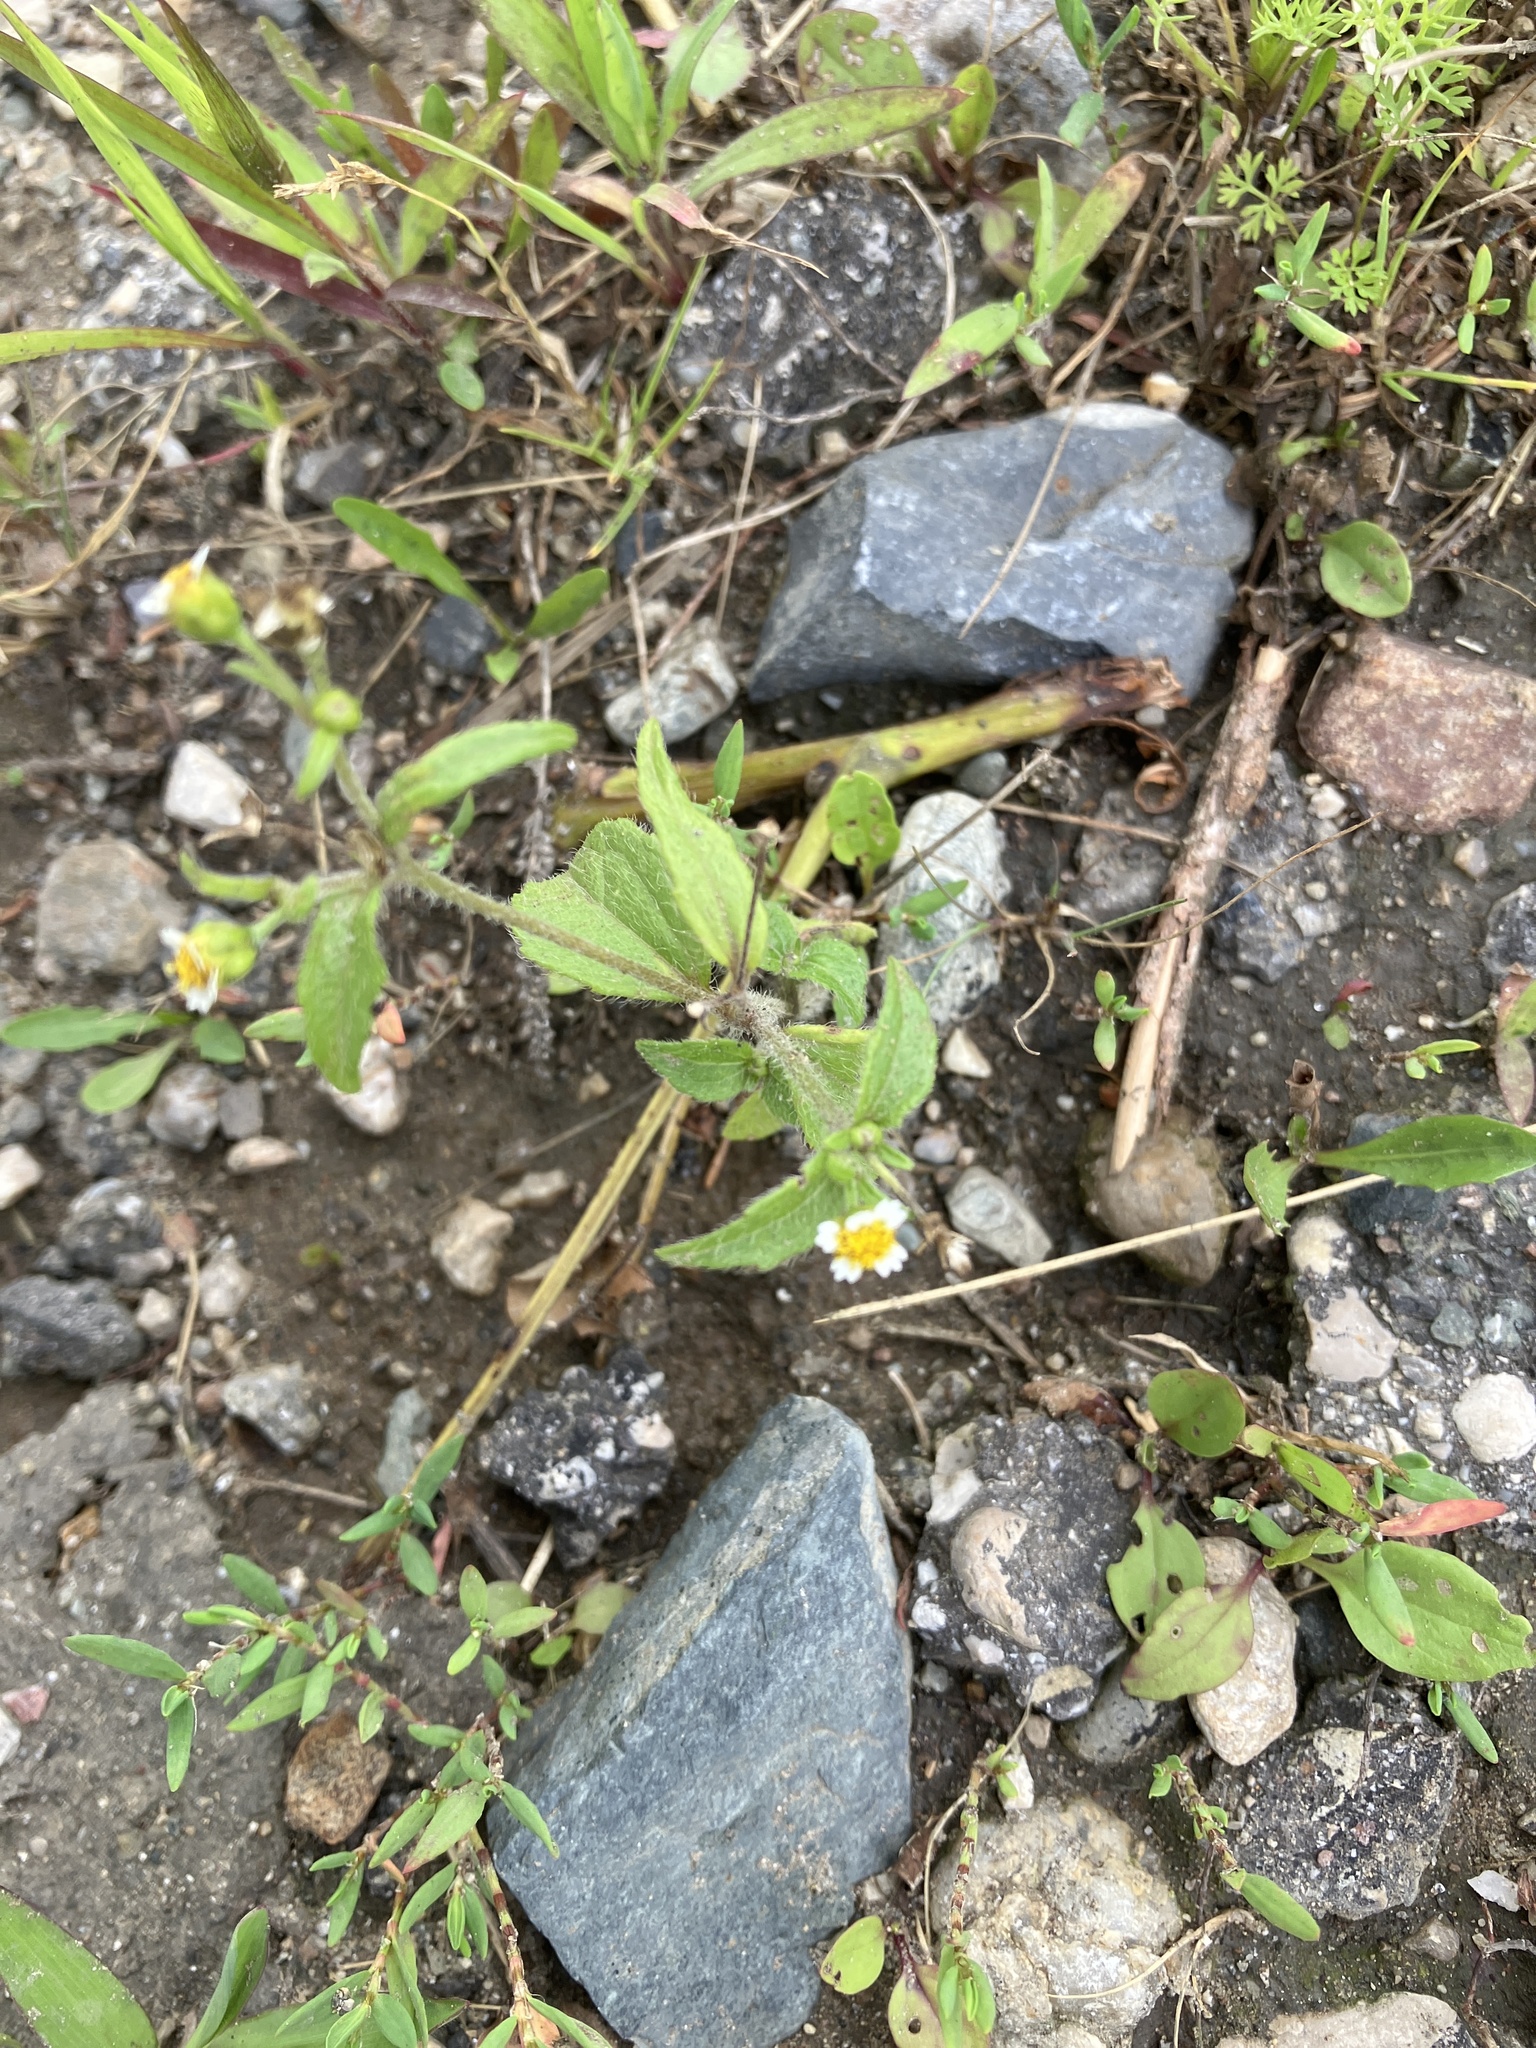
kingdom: Plantae
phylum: Tracheophyta
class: Magnoliopsida
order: Asterales
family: Asteraceae
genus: Galinsoga
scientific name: Galinsoga quadriradiata
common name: Shaggy soldier
